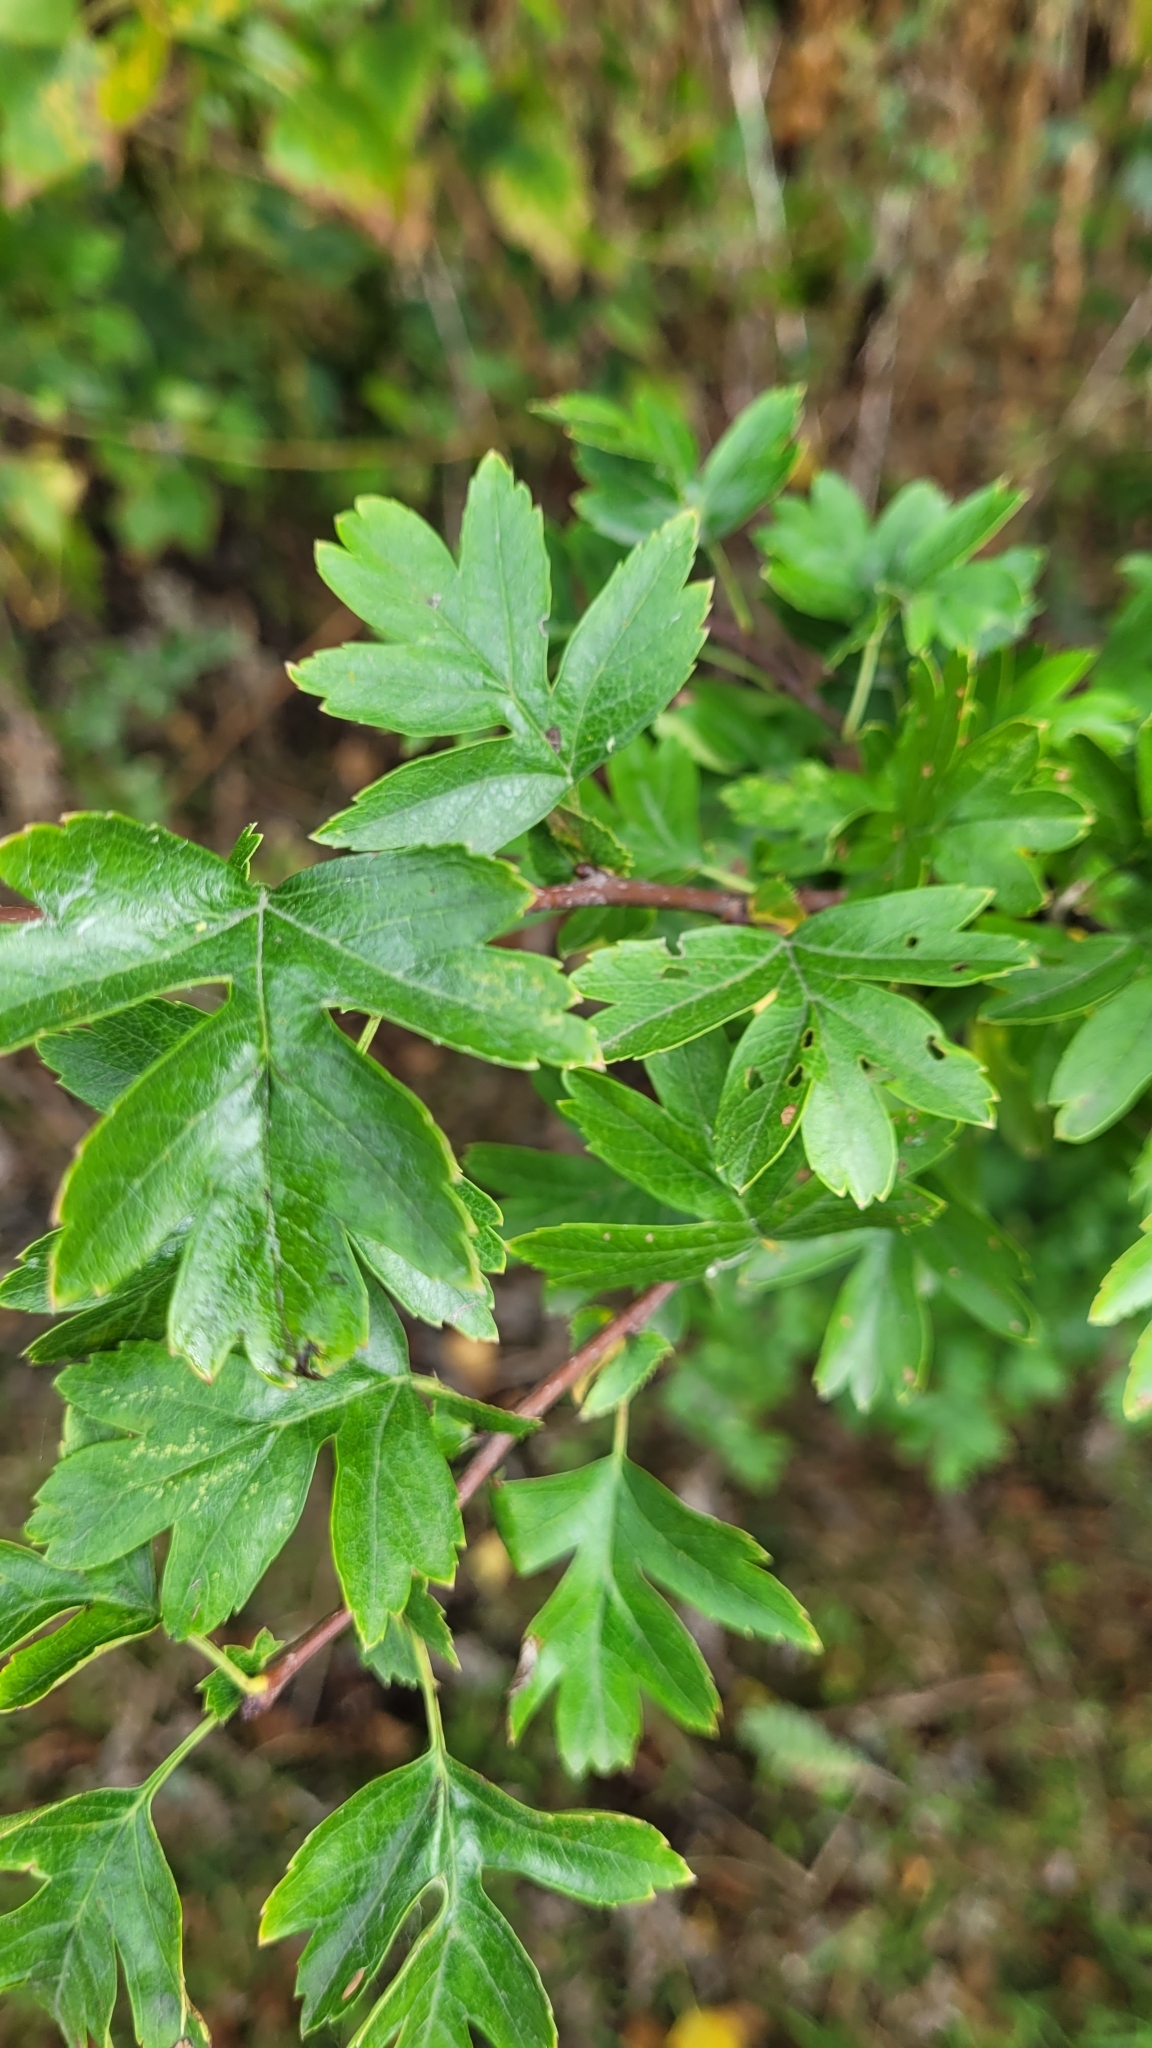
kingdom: Plantae
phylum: Tracheophyta
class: Magnoliopsida
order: Rosales
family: Rosaceae
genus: Crataegus
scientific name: Crataegus monogyna
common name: Hawthorn
